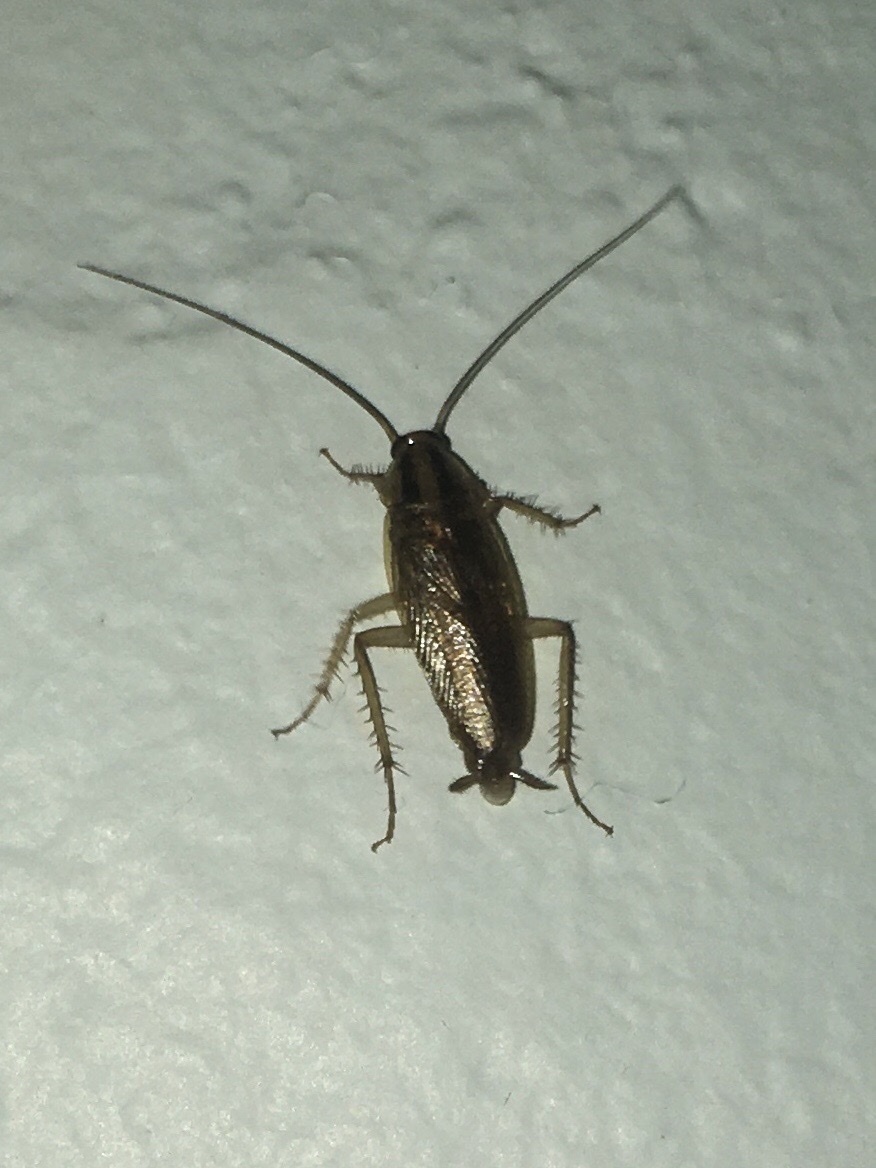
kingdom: Animalia
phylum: Arthropoda
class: Insecta
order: Blattodea
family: Ectobiidae
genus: Blattella
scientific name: Blattella germanica
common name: German cockroach
